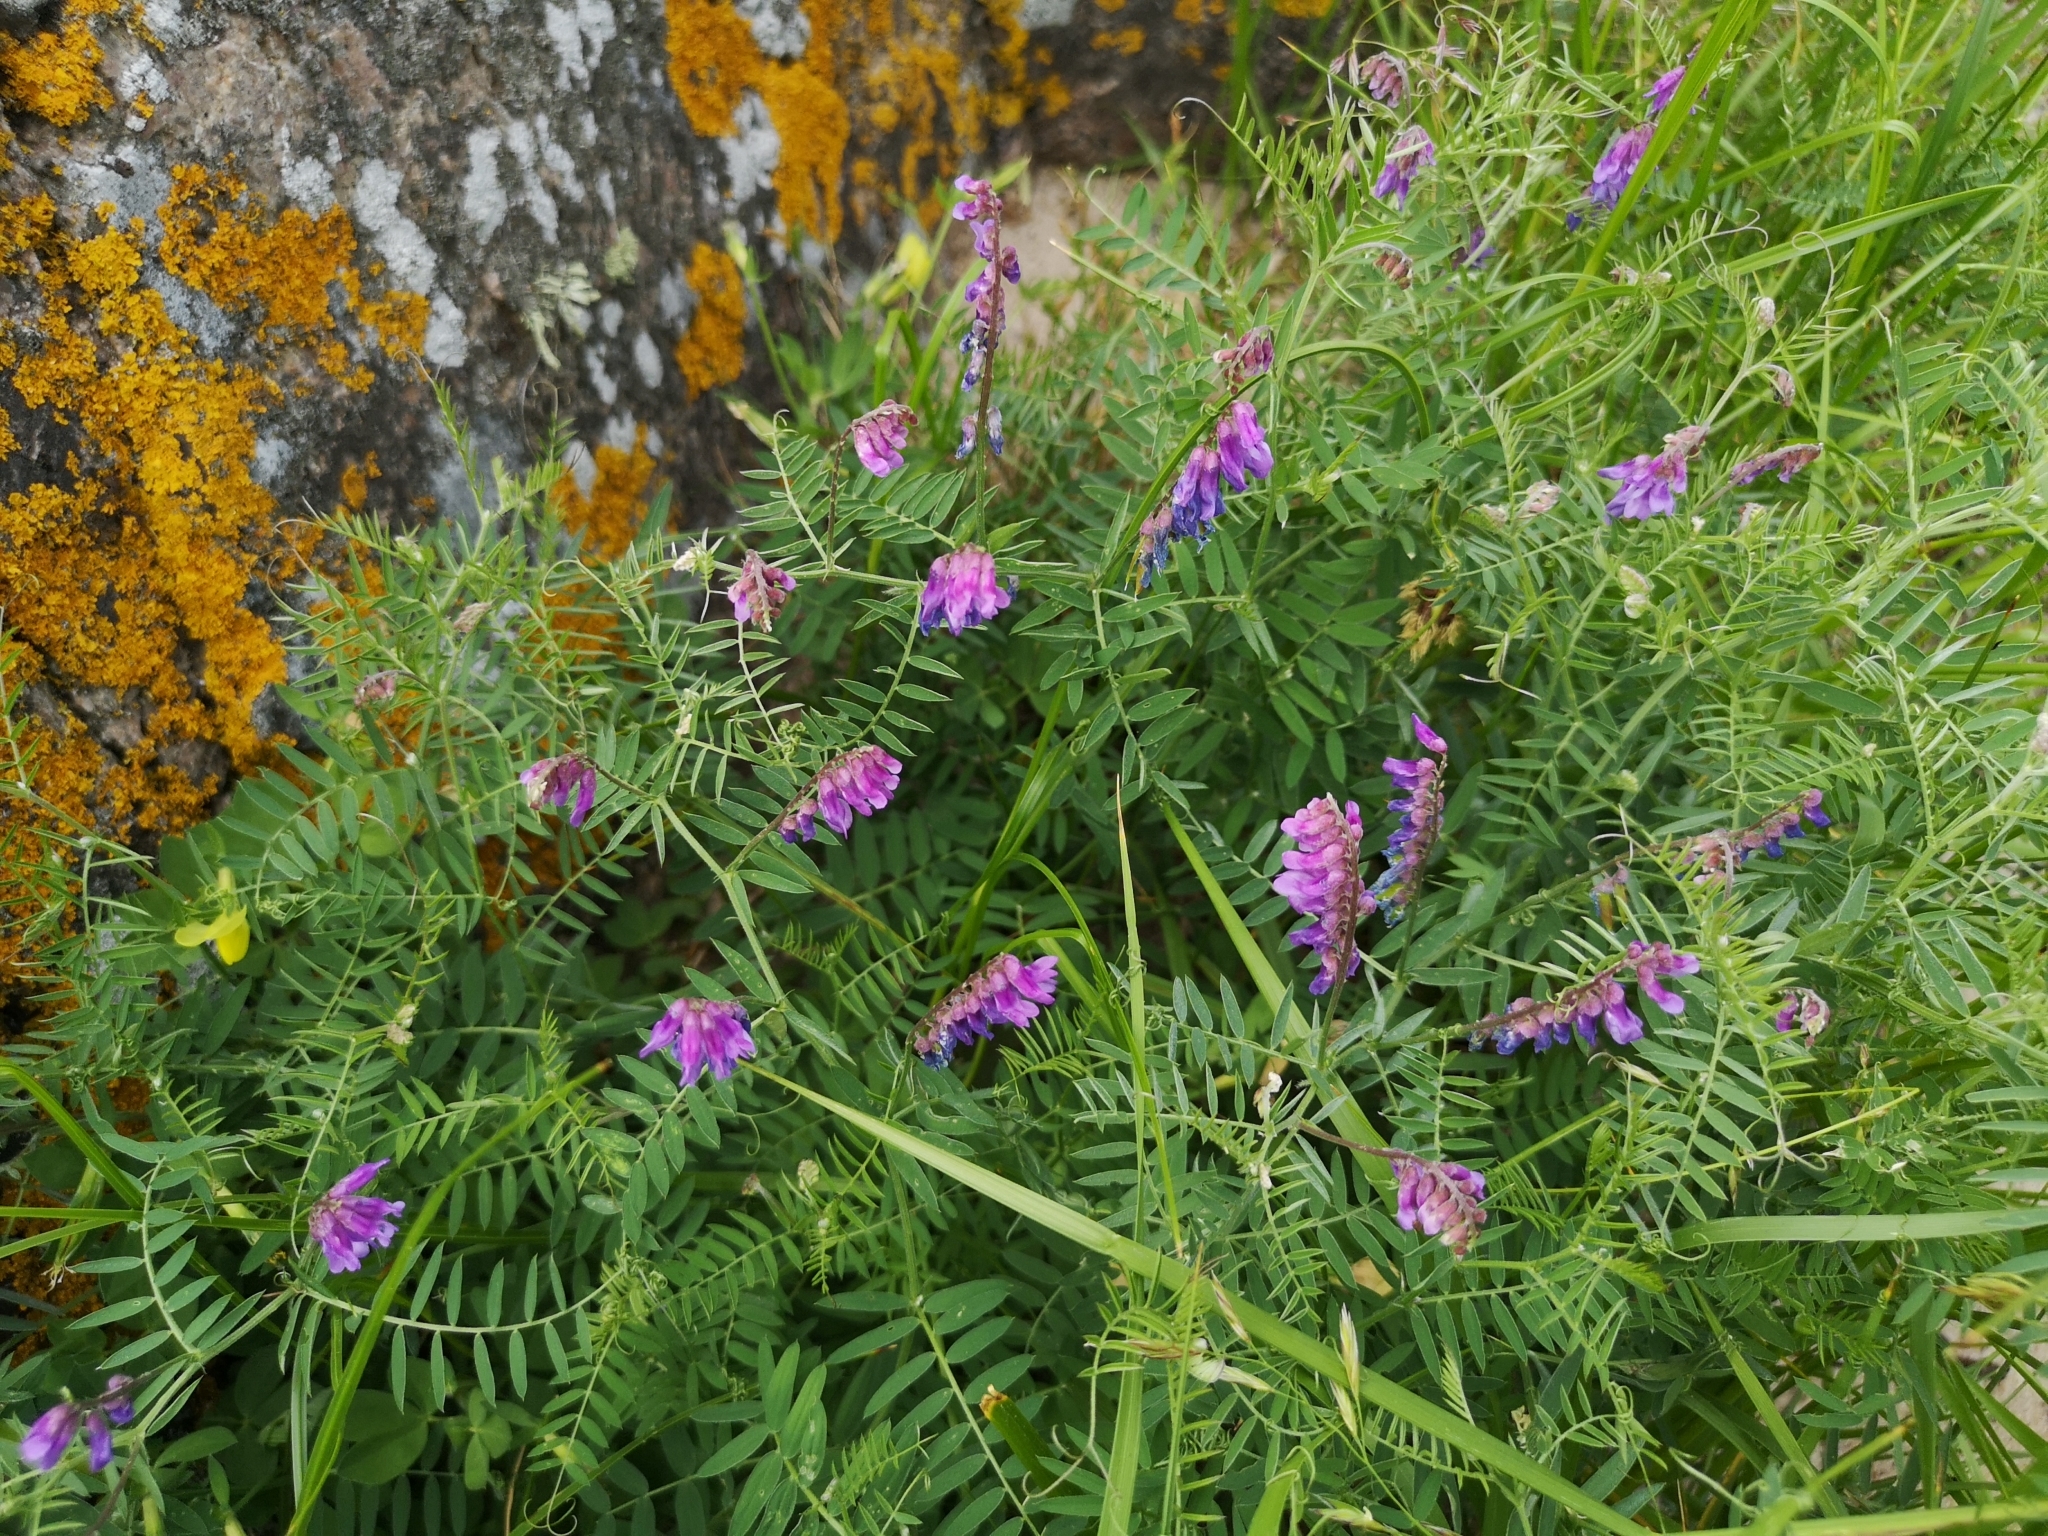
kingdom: Plantae
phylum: Tracheophyta
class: Magnoliopsida
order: Fabales
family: Fabaceae
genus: Vicia
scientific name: Vicia cracca
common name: Bird vetch
